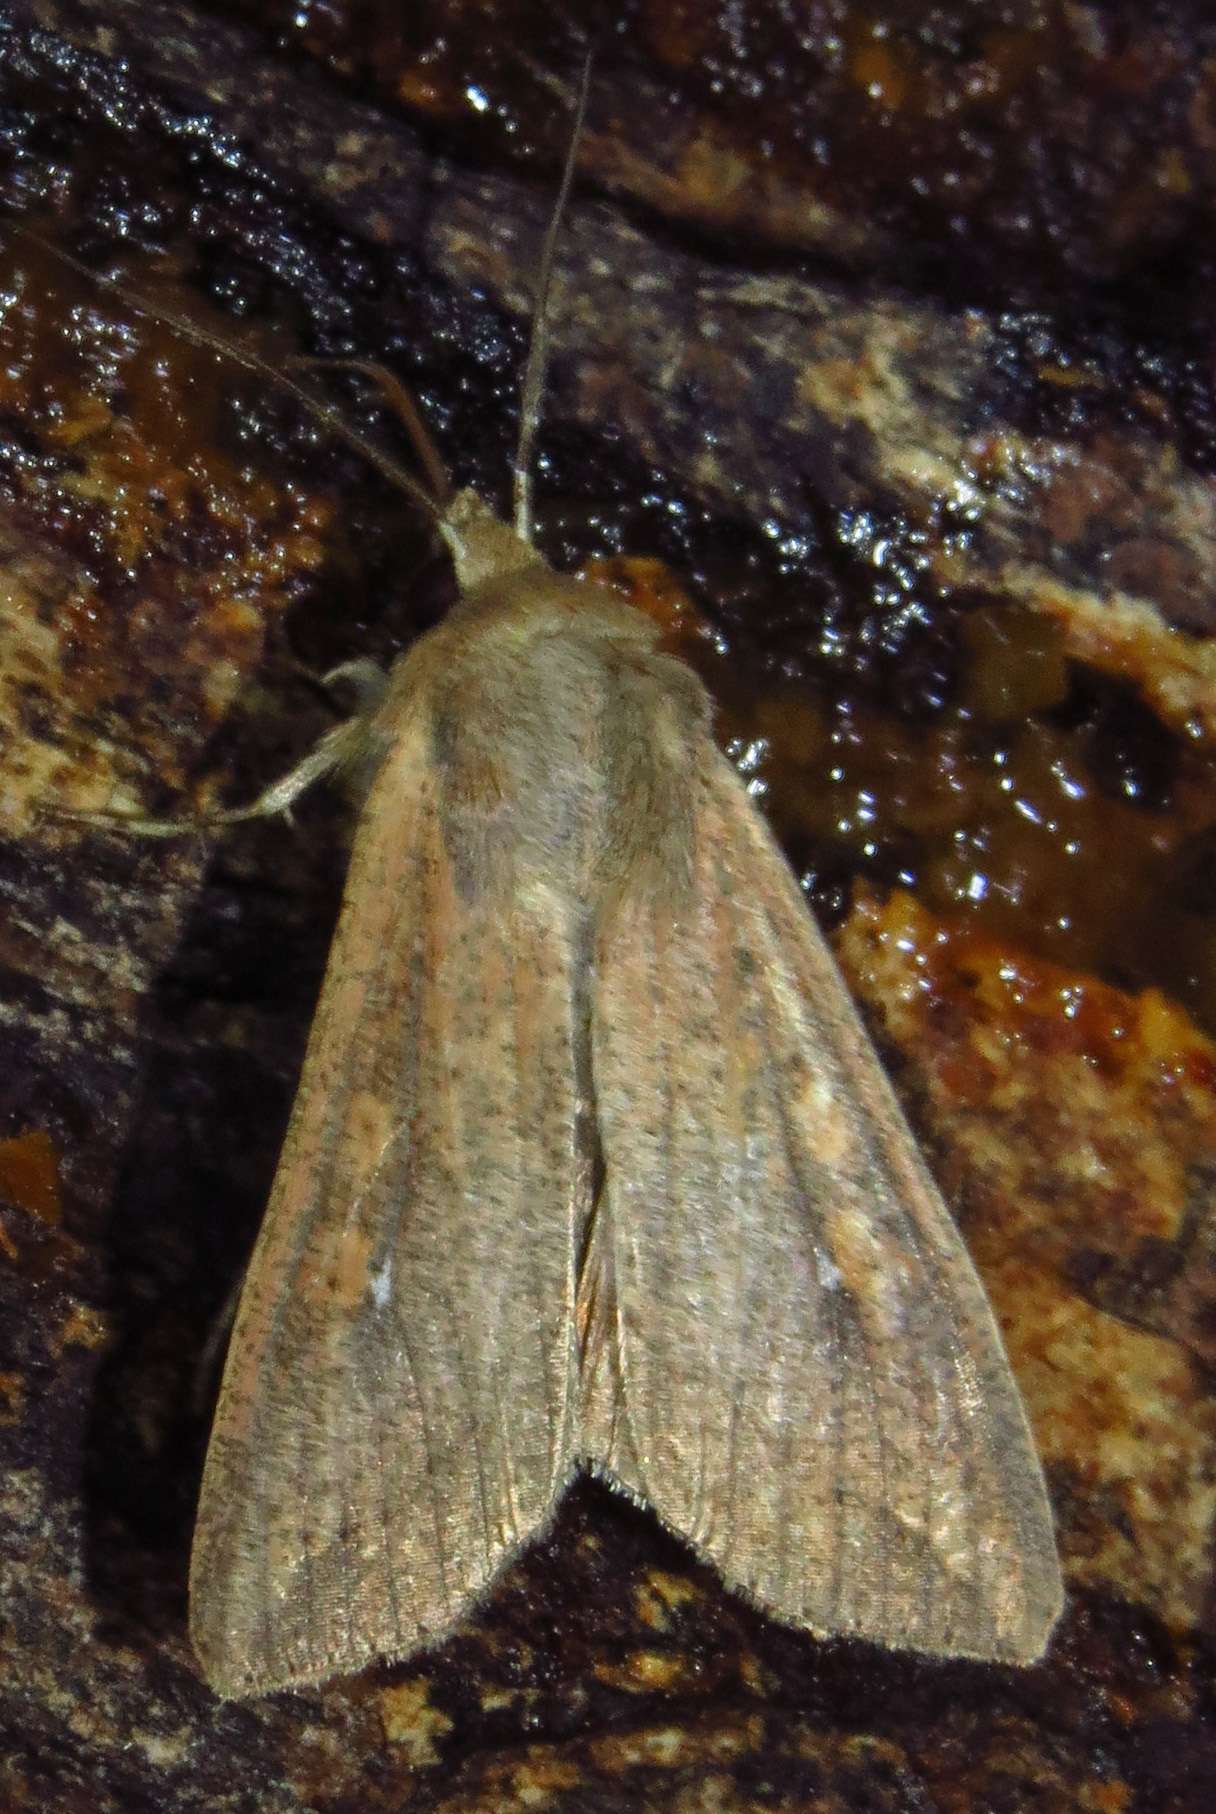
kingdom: Animalia
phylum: Arthropoda
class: Insecta
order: Lepidoptera
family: Noctuidae
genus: Mythimna
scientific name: Mythimna unipuncta
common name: White-speck
